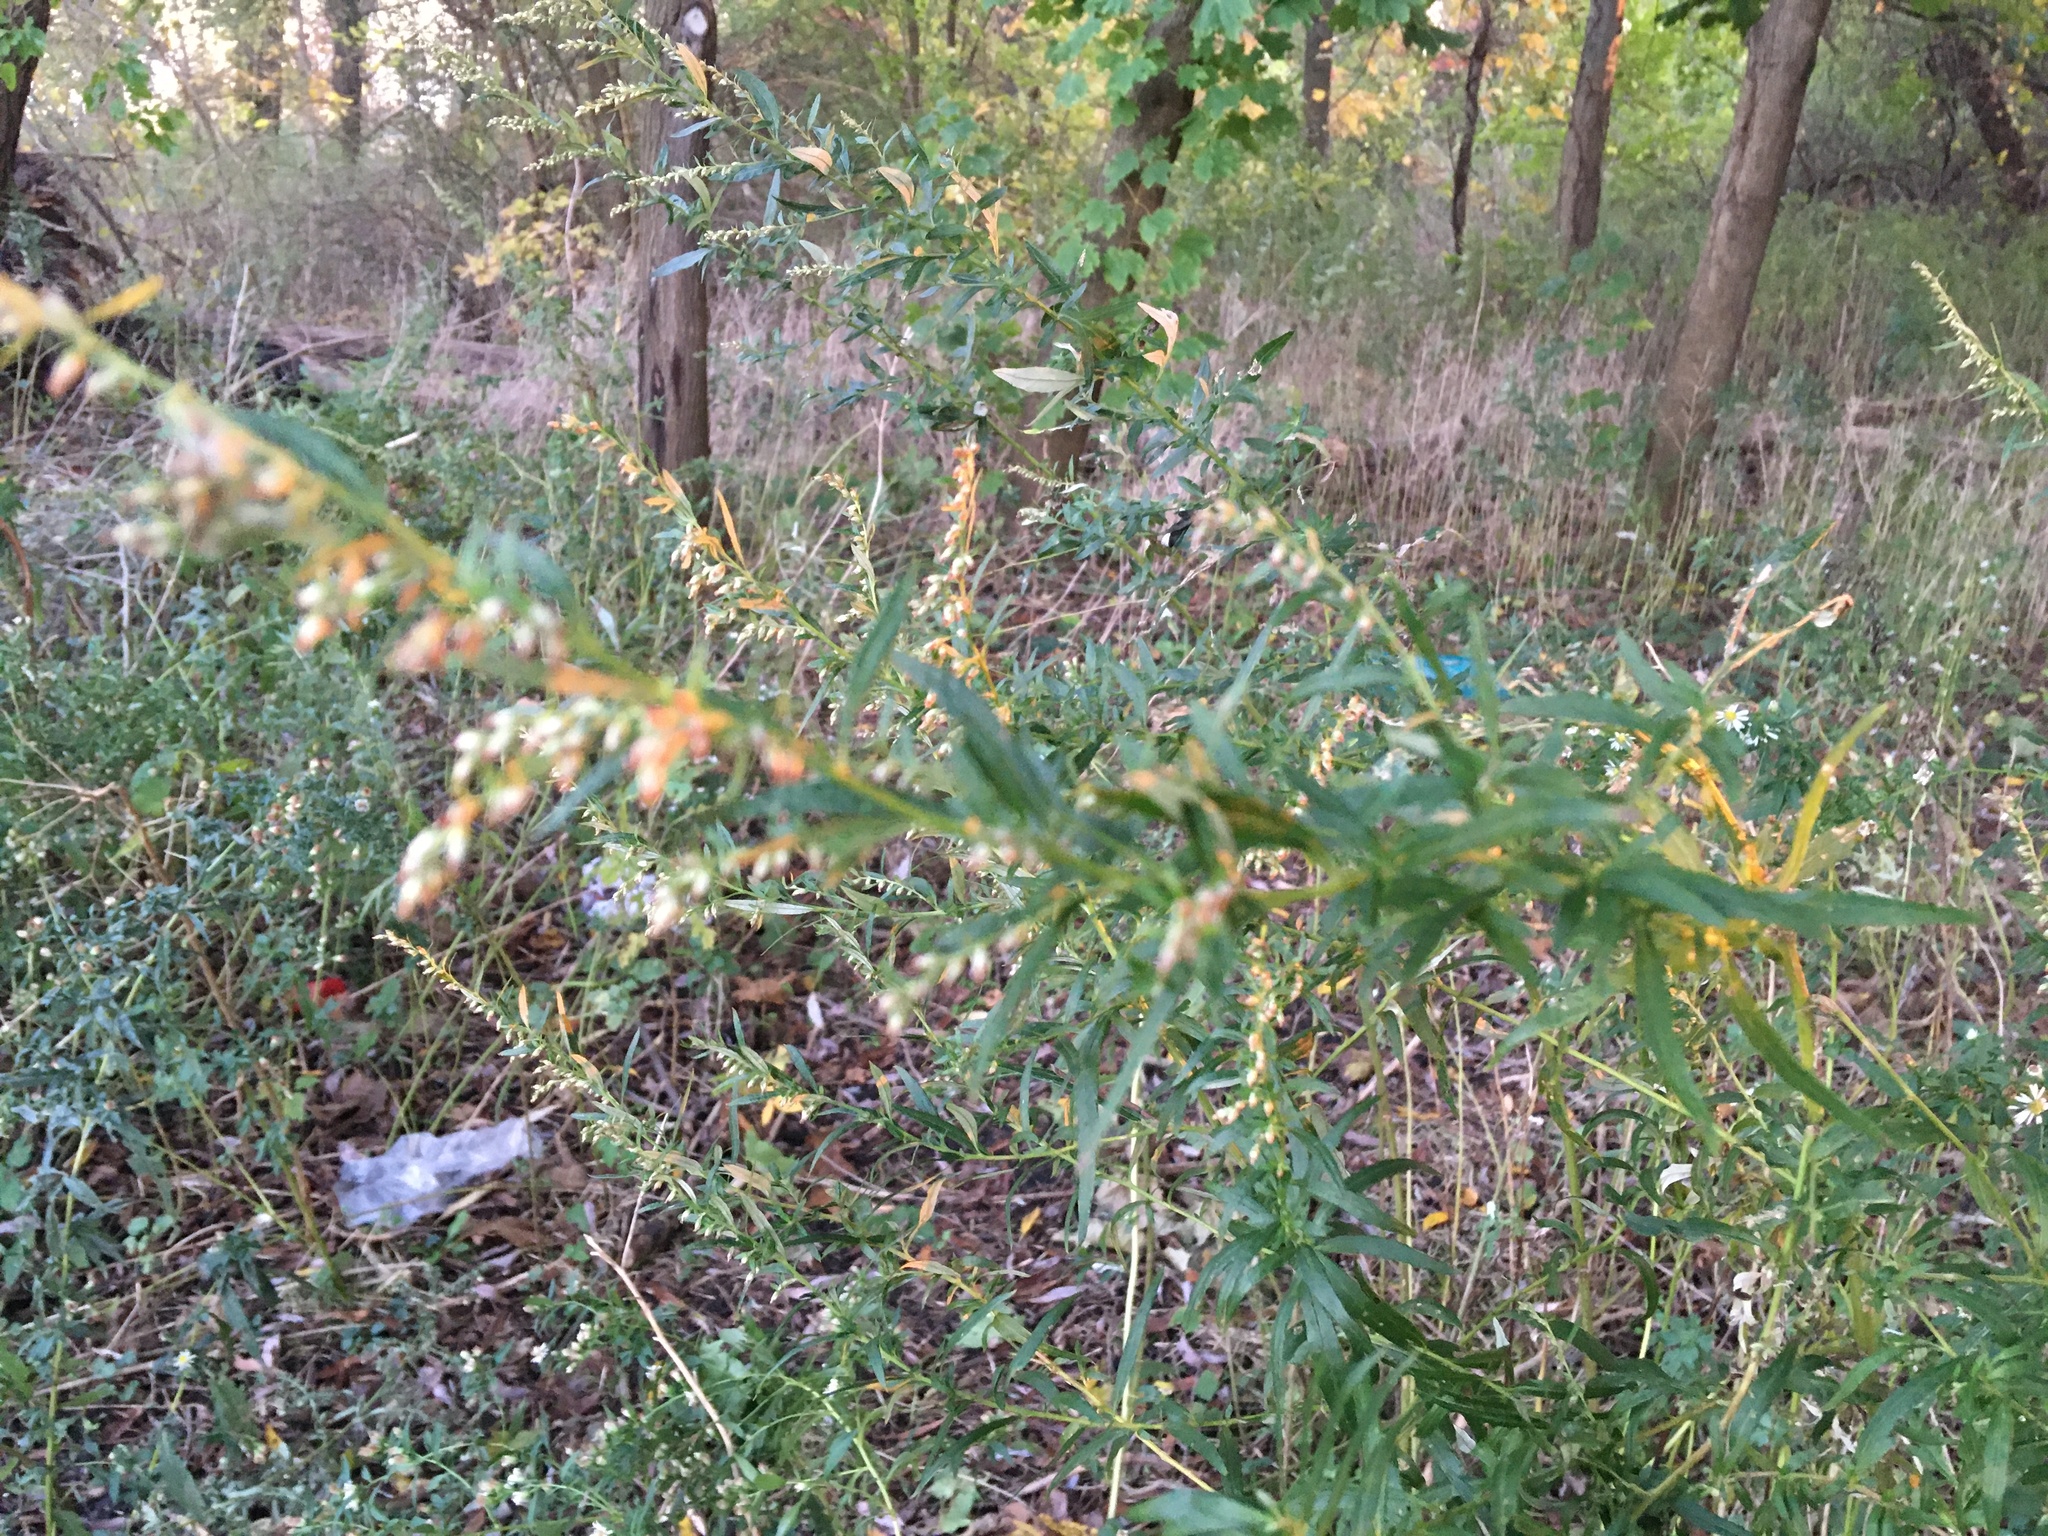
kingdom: Plantae
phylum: Tracheophyta
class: Magnoliopsida
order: Asterales
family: Asteraceae
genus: Artemisia
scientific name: Artemisia vulgaris
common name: Mugwort
